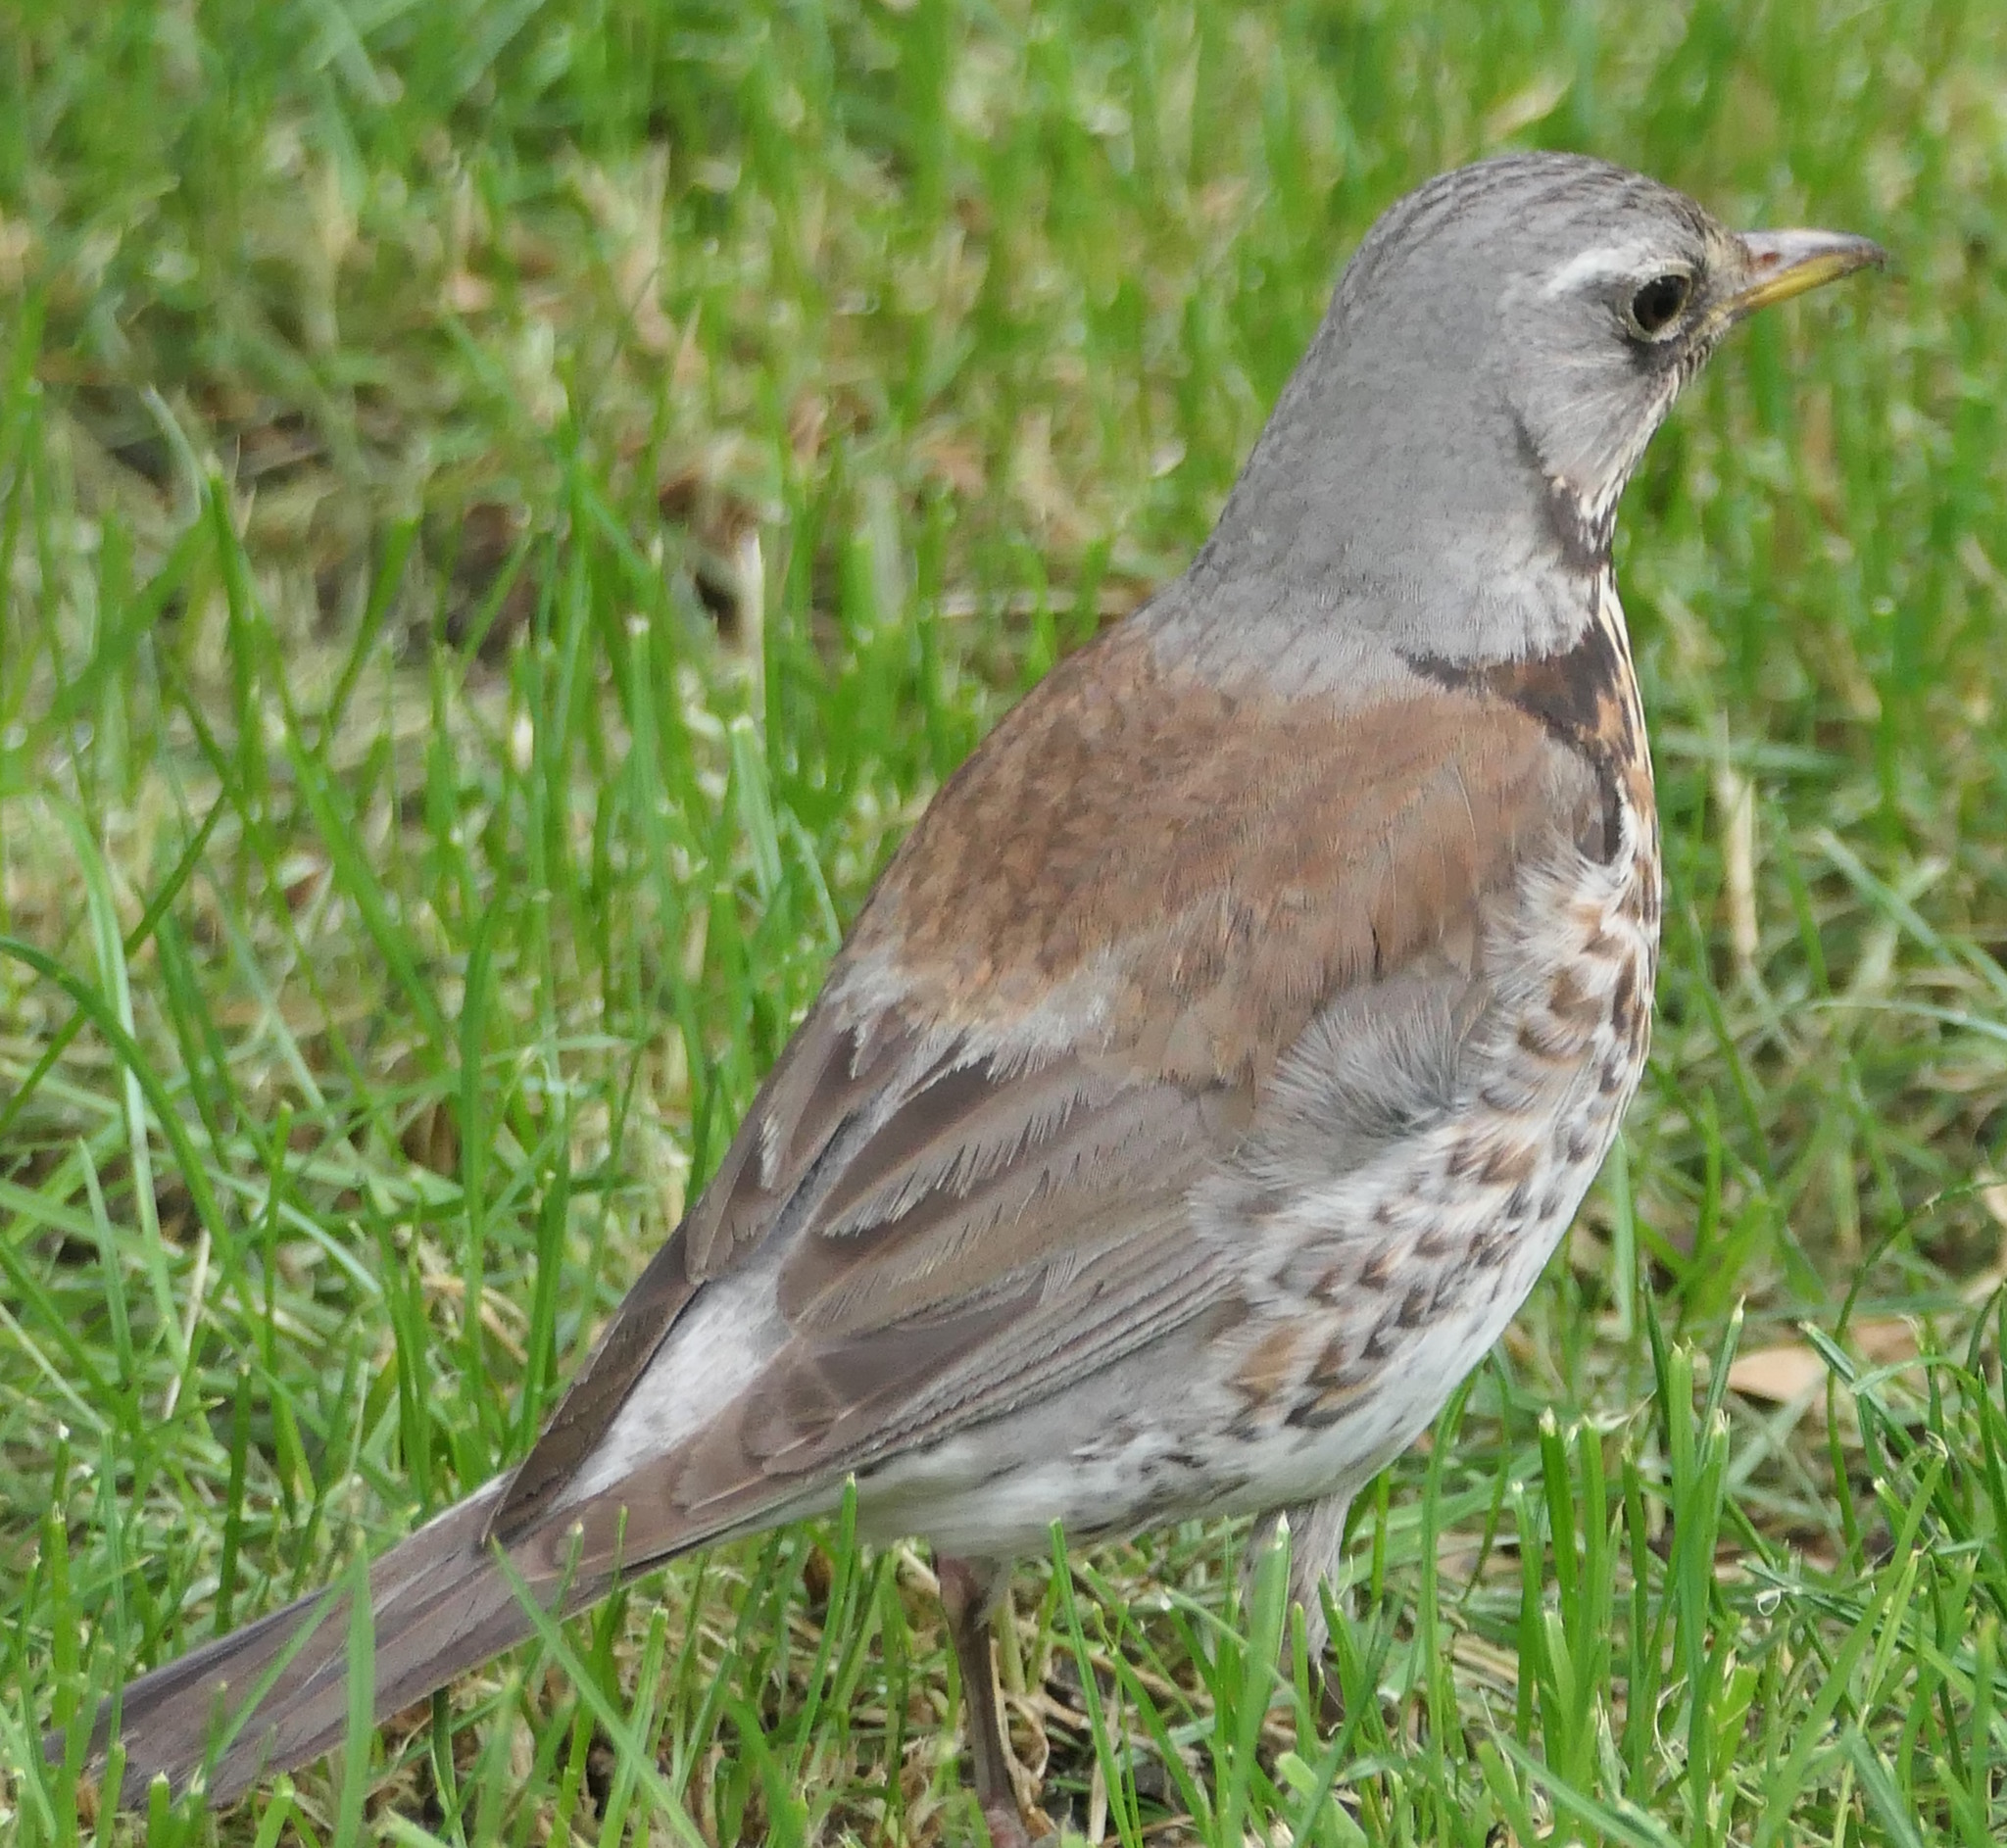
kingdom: Animalia
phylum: Chordata
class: Aves
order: Passeriformes
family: Turdidae
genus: Turdus
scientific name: Turdus pilaris
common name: Fieldfare
